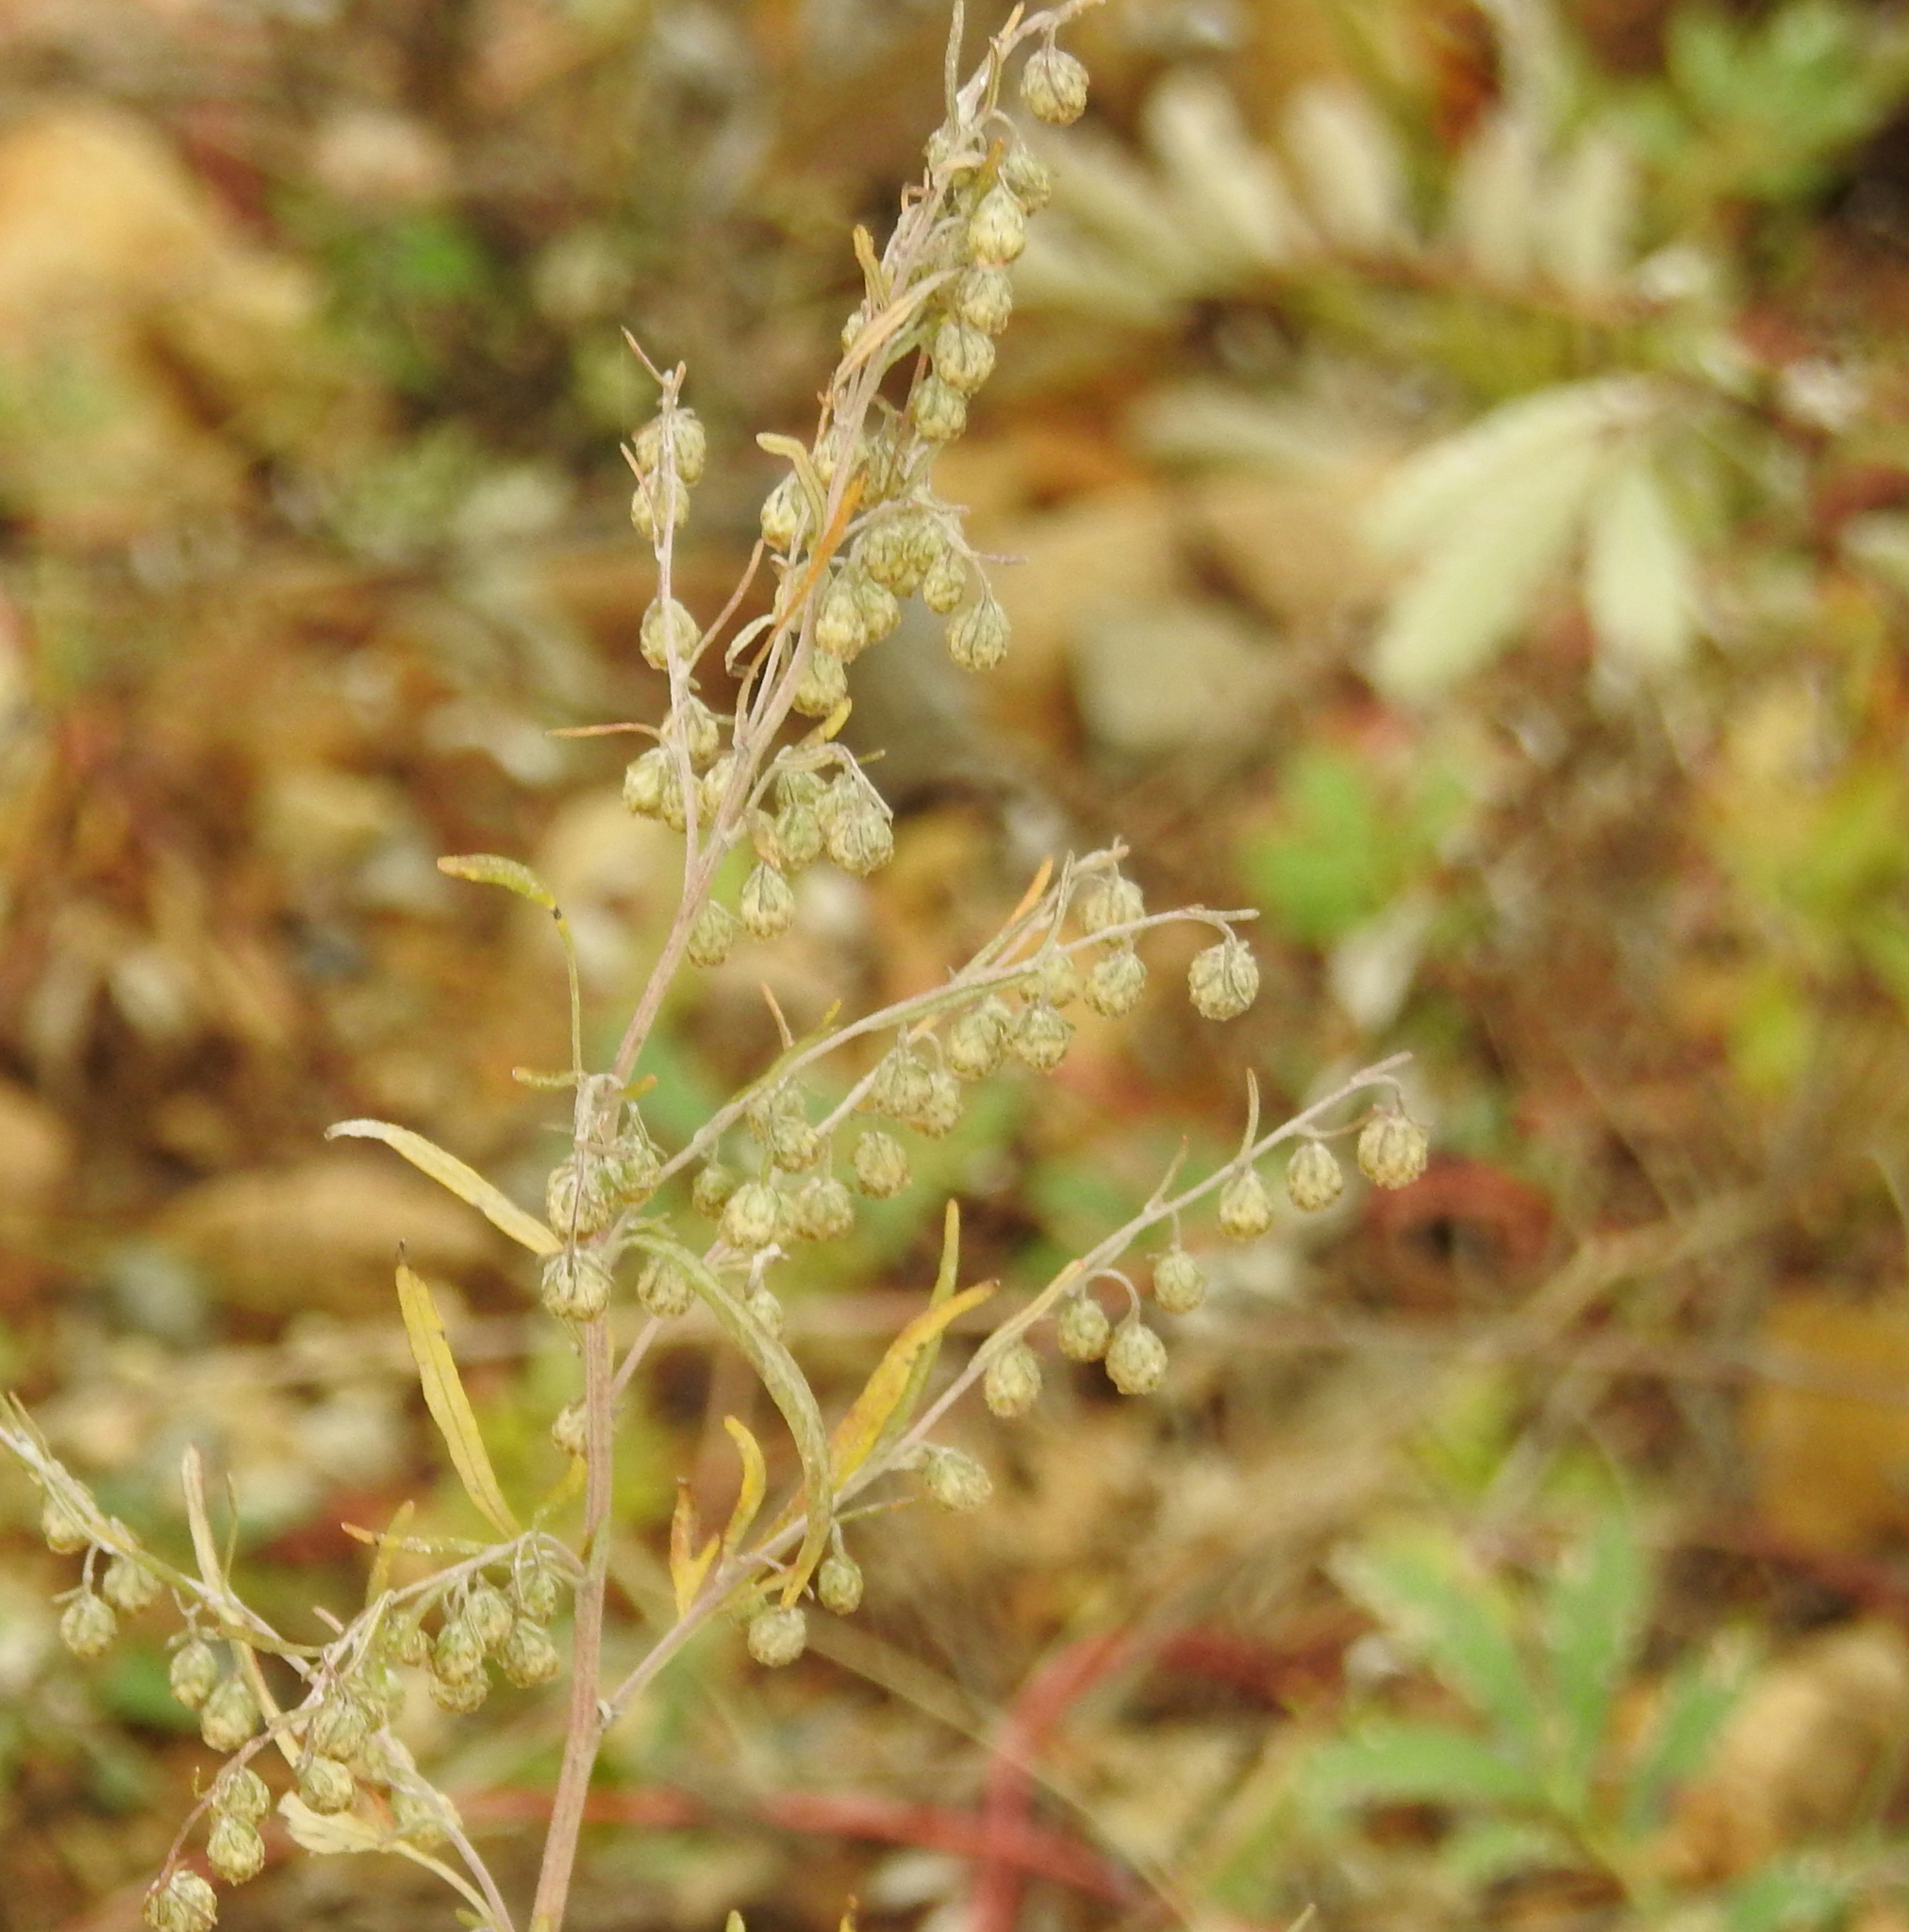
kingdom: Plantae
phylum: Tracheophyta
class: Magnoliopsida
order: Asterales
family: Asteraceae
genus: Artemisia
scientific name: Artemisia sieversiana
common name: Sieversian wormwood
